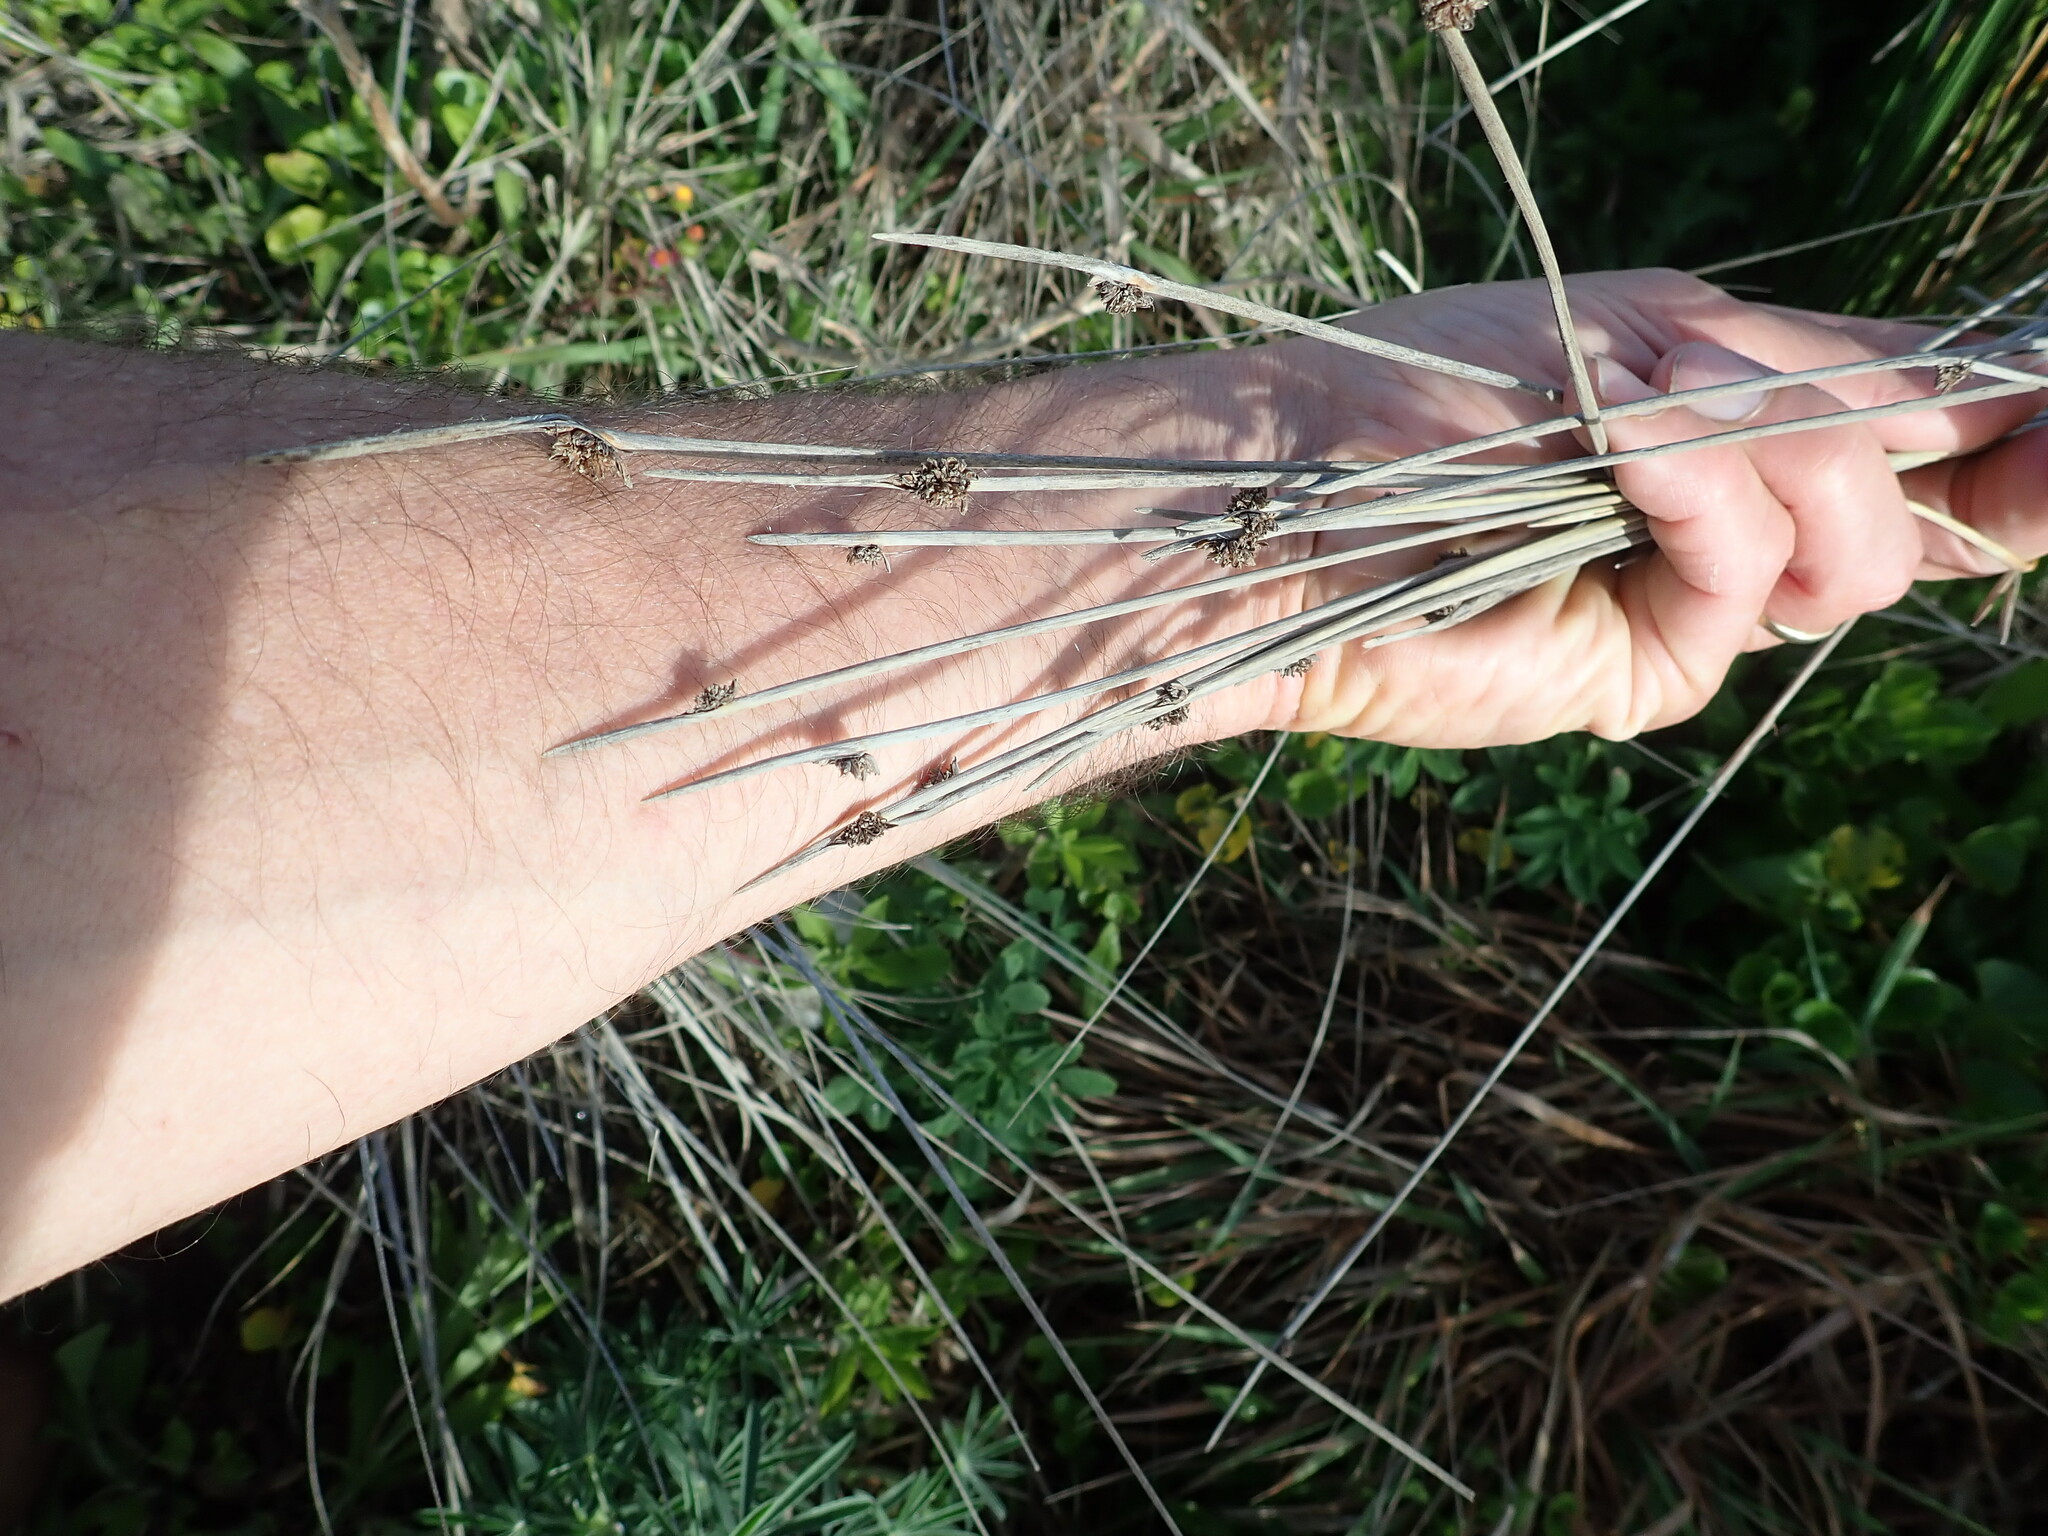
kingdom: Plantae
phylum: Tracheophyta
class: Liliopsida
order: Poales
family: Cyperaceae
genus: Ficinia
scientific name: Ficinia nodosa
